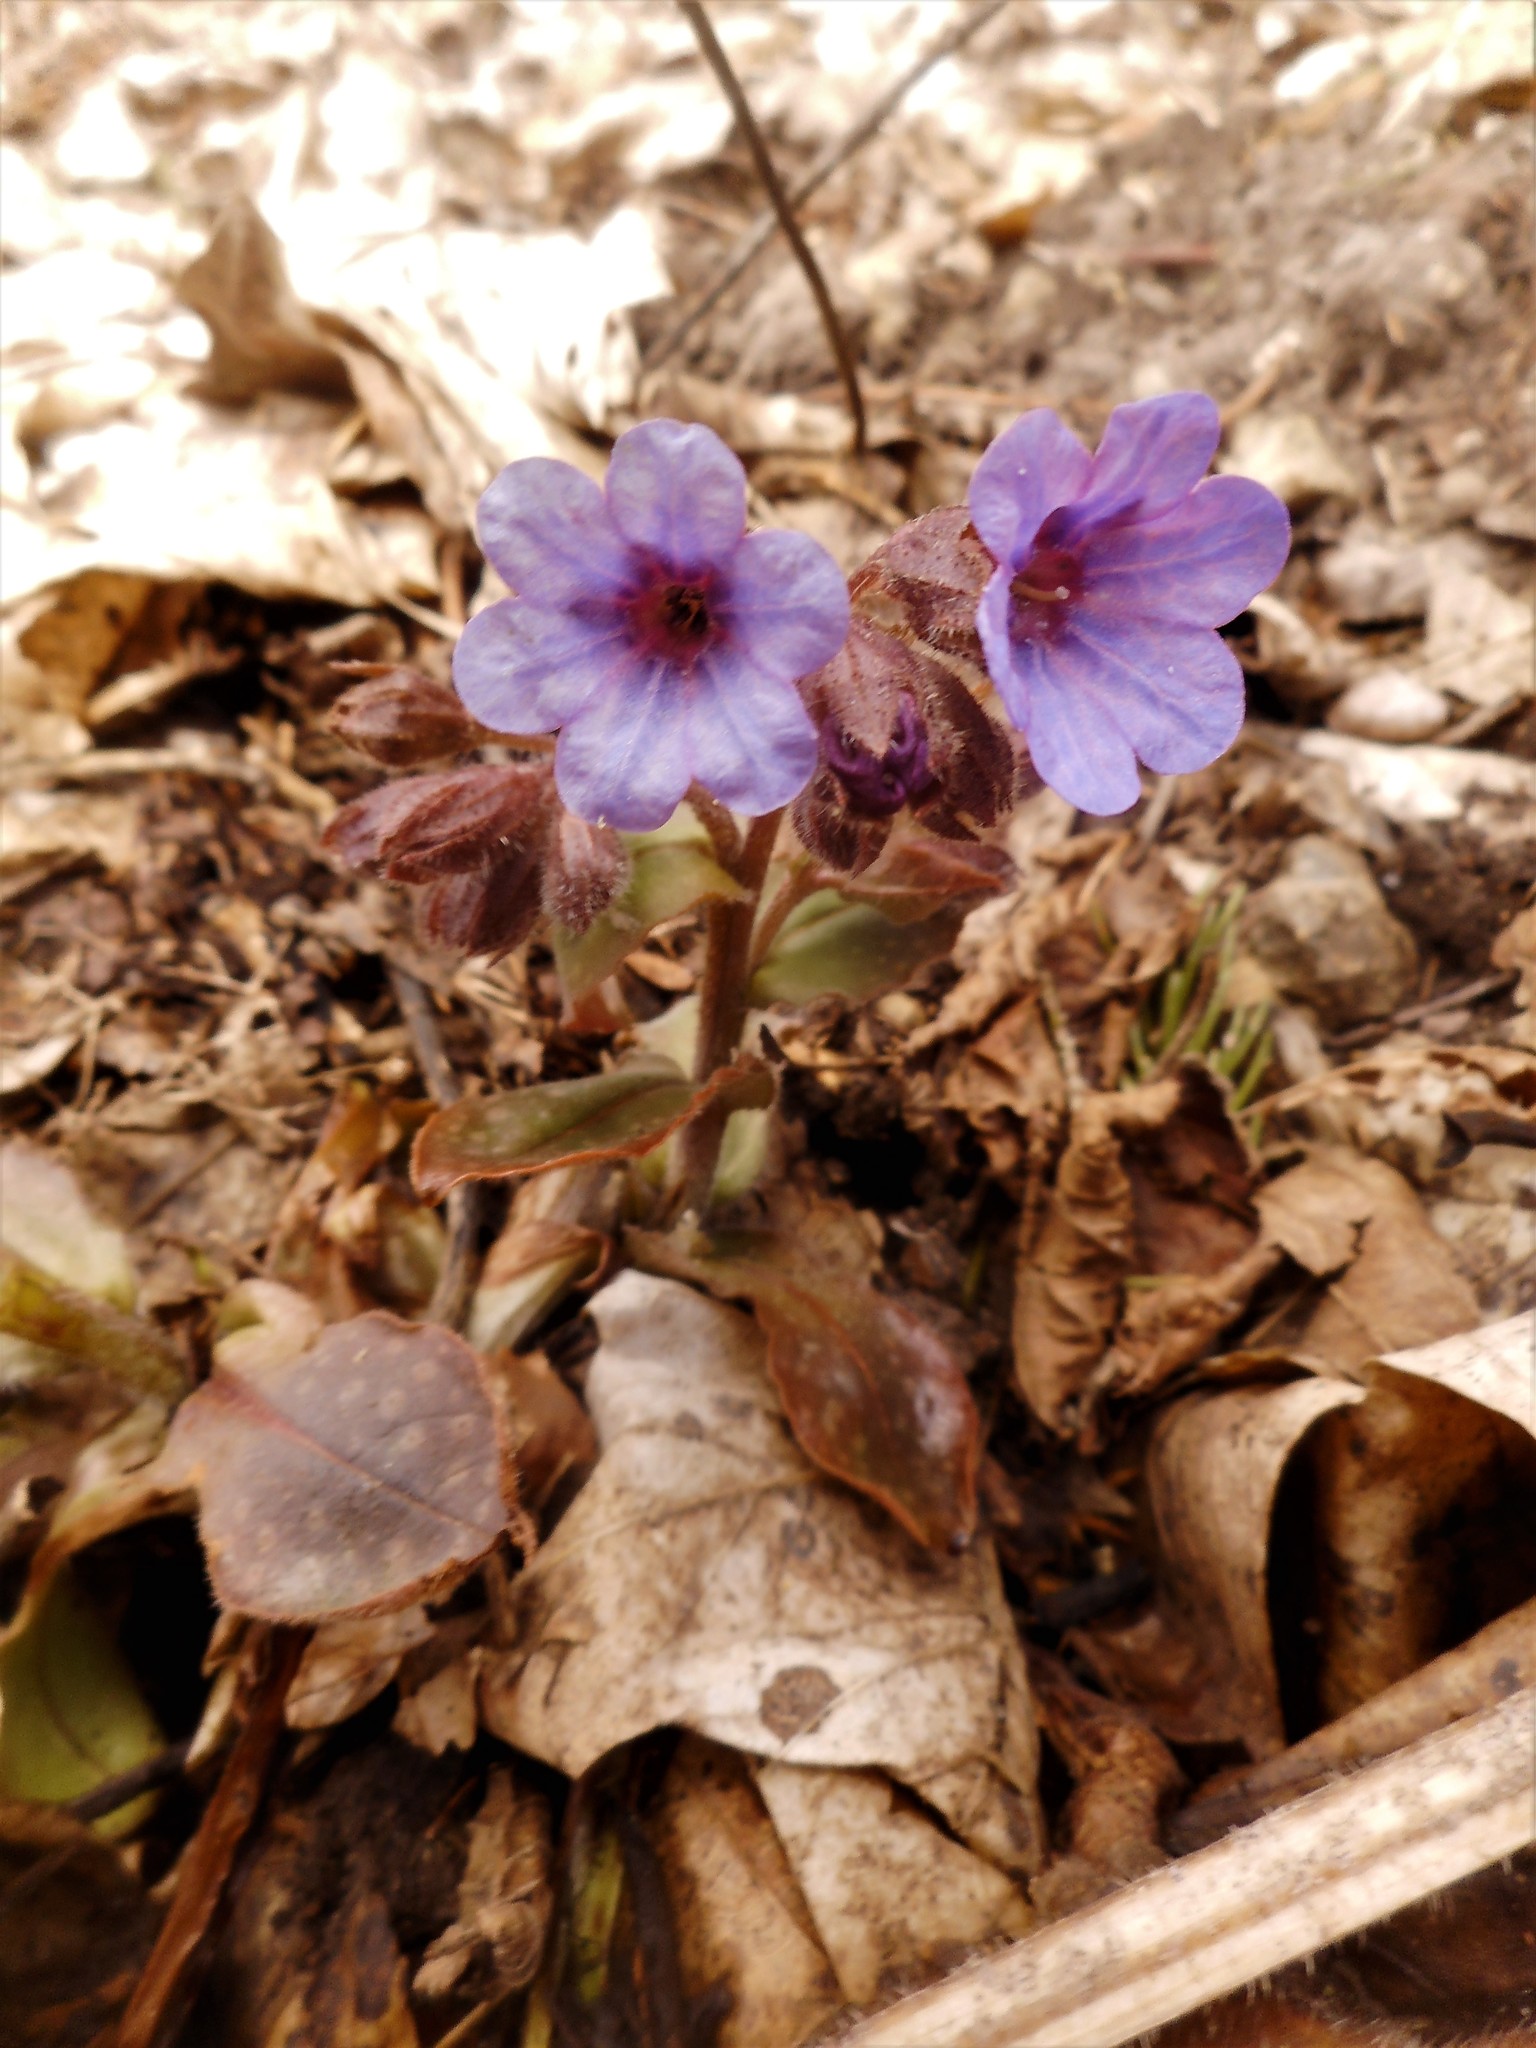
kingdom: Plantae
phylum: Tracheophyta
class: Magnoliopsida
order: Boraginales
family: Boraginaceae
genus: Pulmonaria
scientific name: Pulmonaria officinalis
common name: Lungwort
